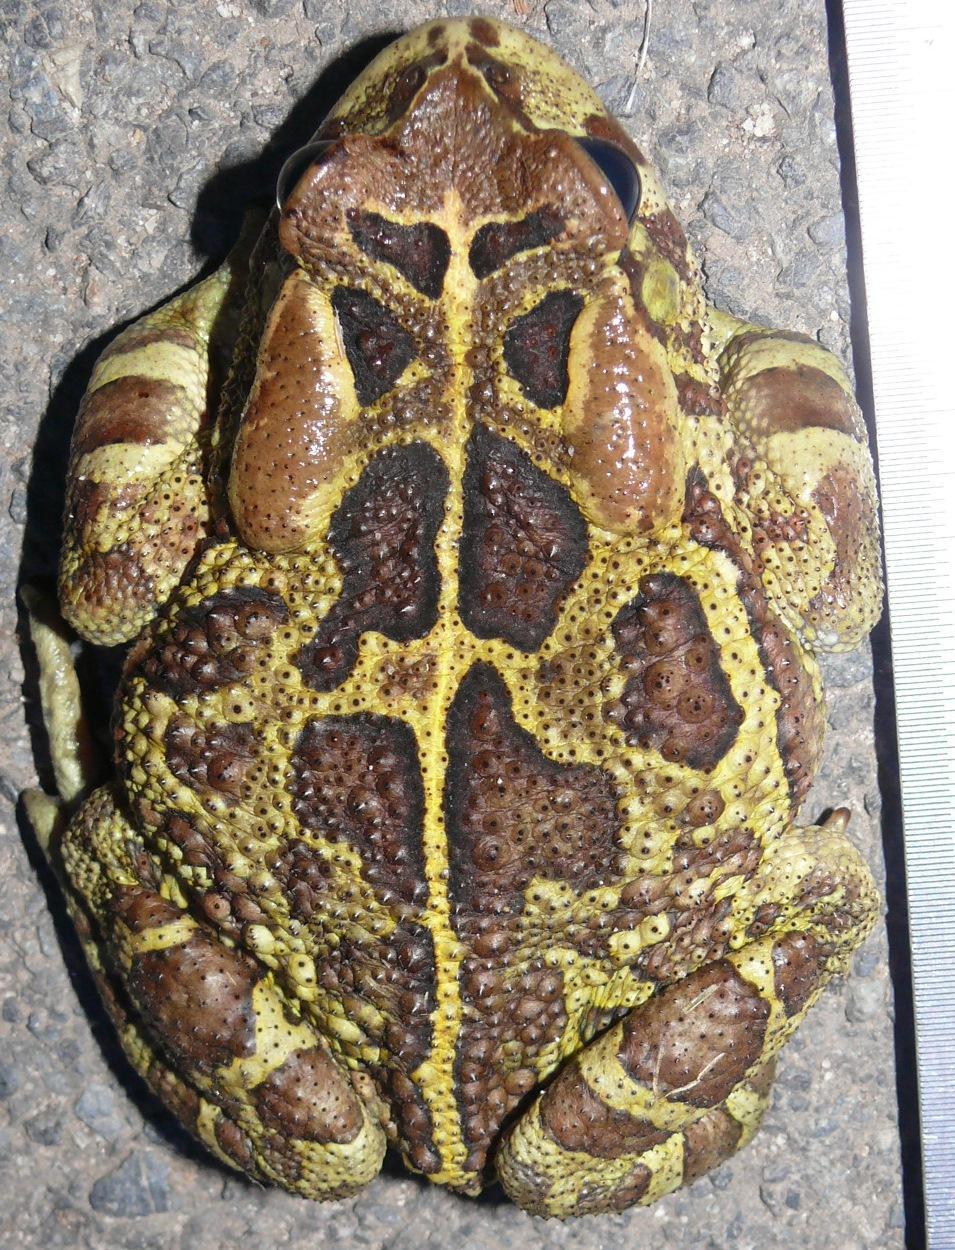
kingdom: Animalia
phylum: Chordata
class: Amphibia
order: Anura
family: Bufonidae
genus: Sclerophrys
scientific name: Sclerophrys pantherina
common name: Panther toad
